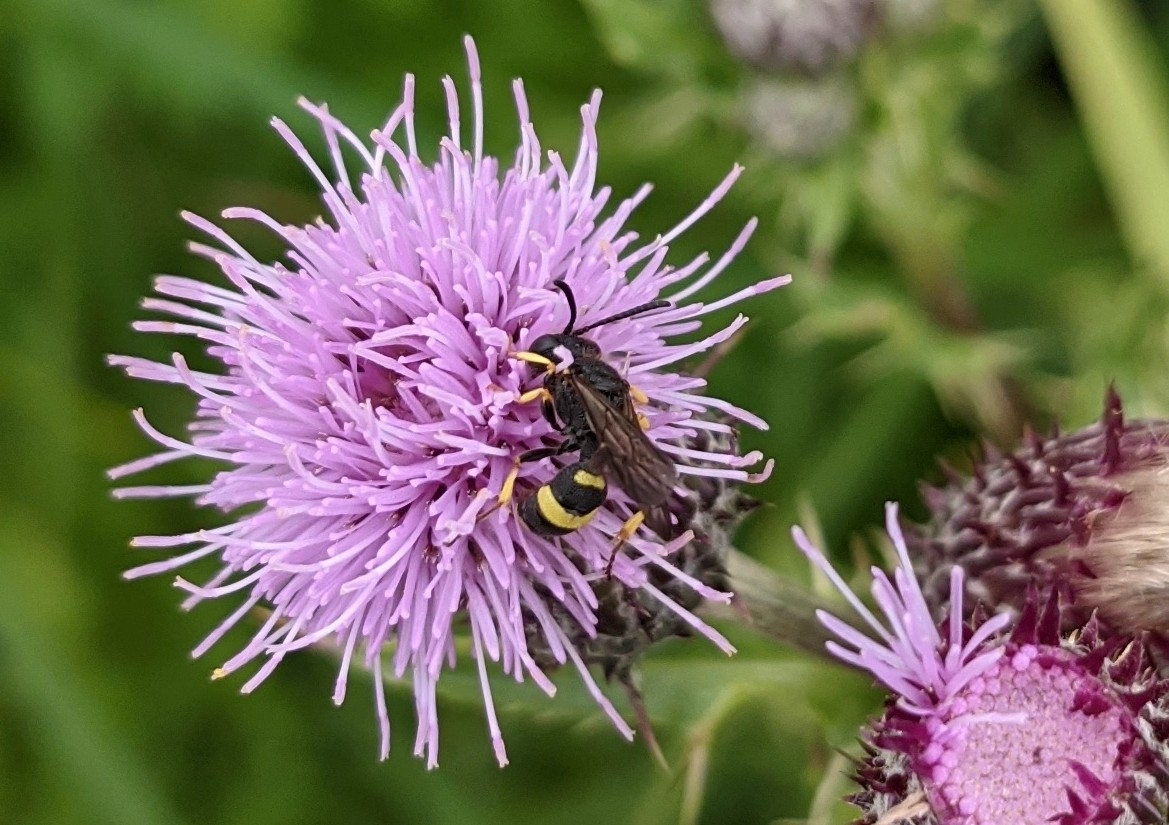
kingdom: Animalia
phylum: Arthropoda
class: Insecta
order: Hymenoptera
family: Crabronidae
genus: Cerceris
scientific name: Cerceris rybyensis
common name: Ornate tailed digger wasp
